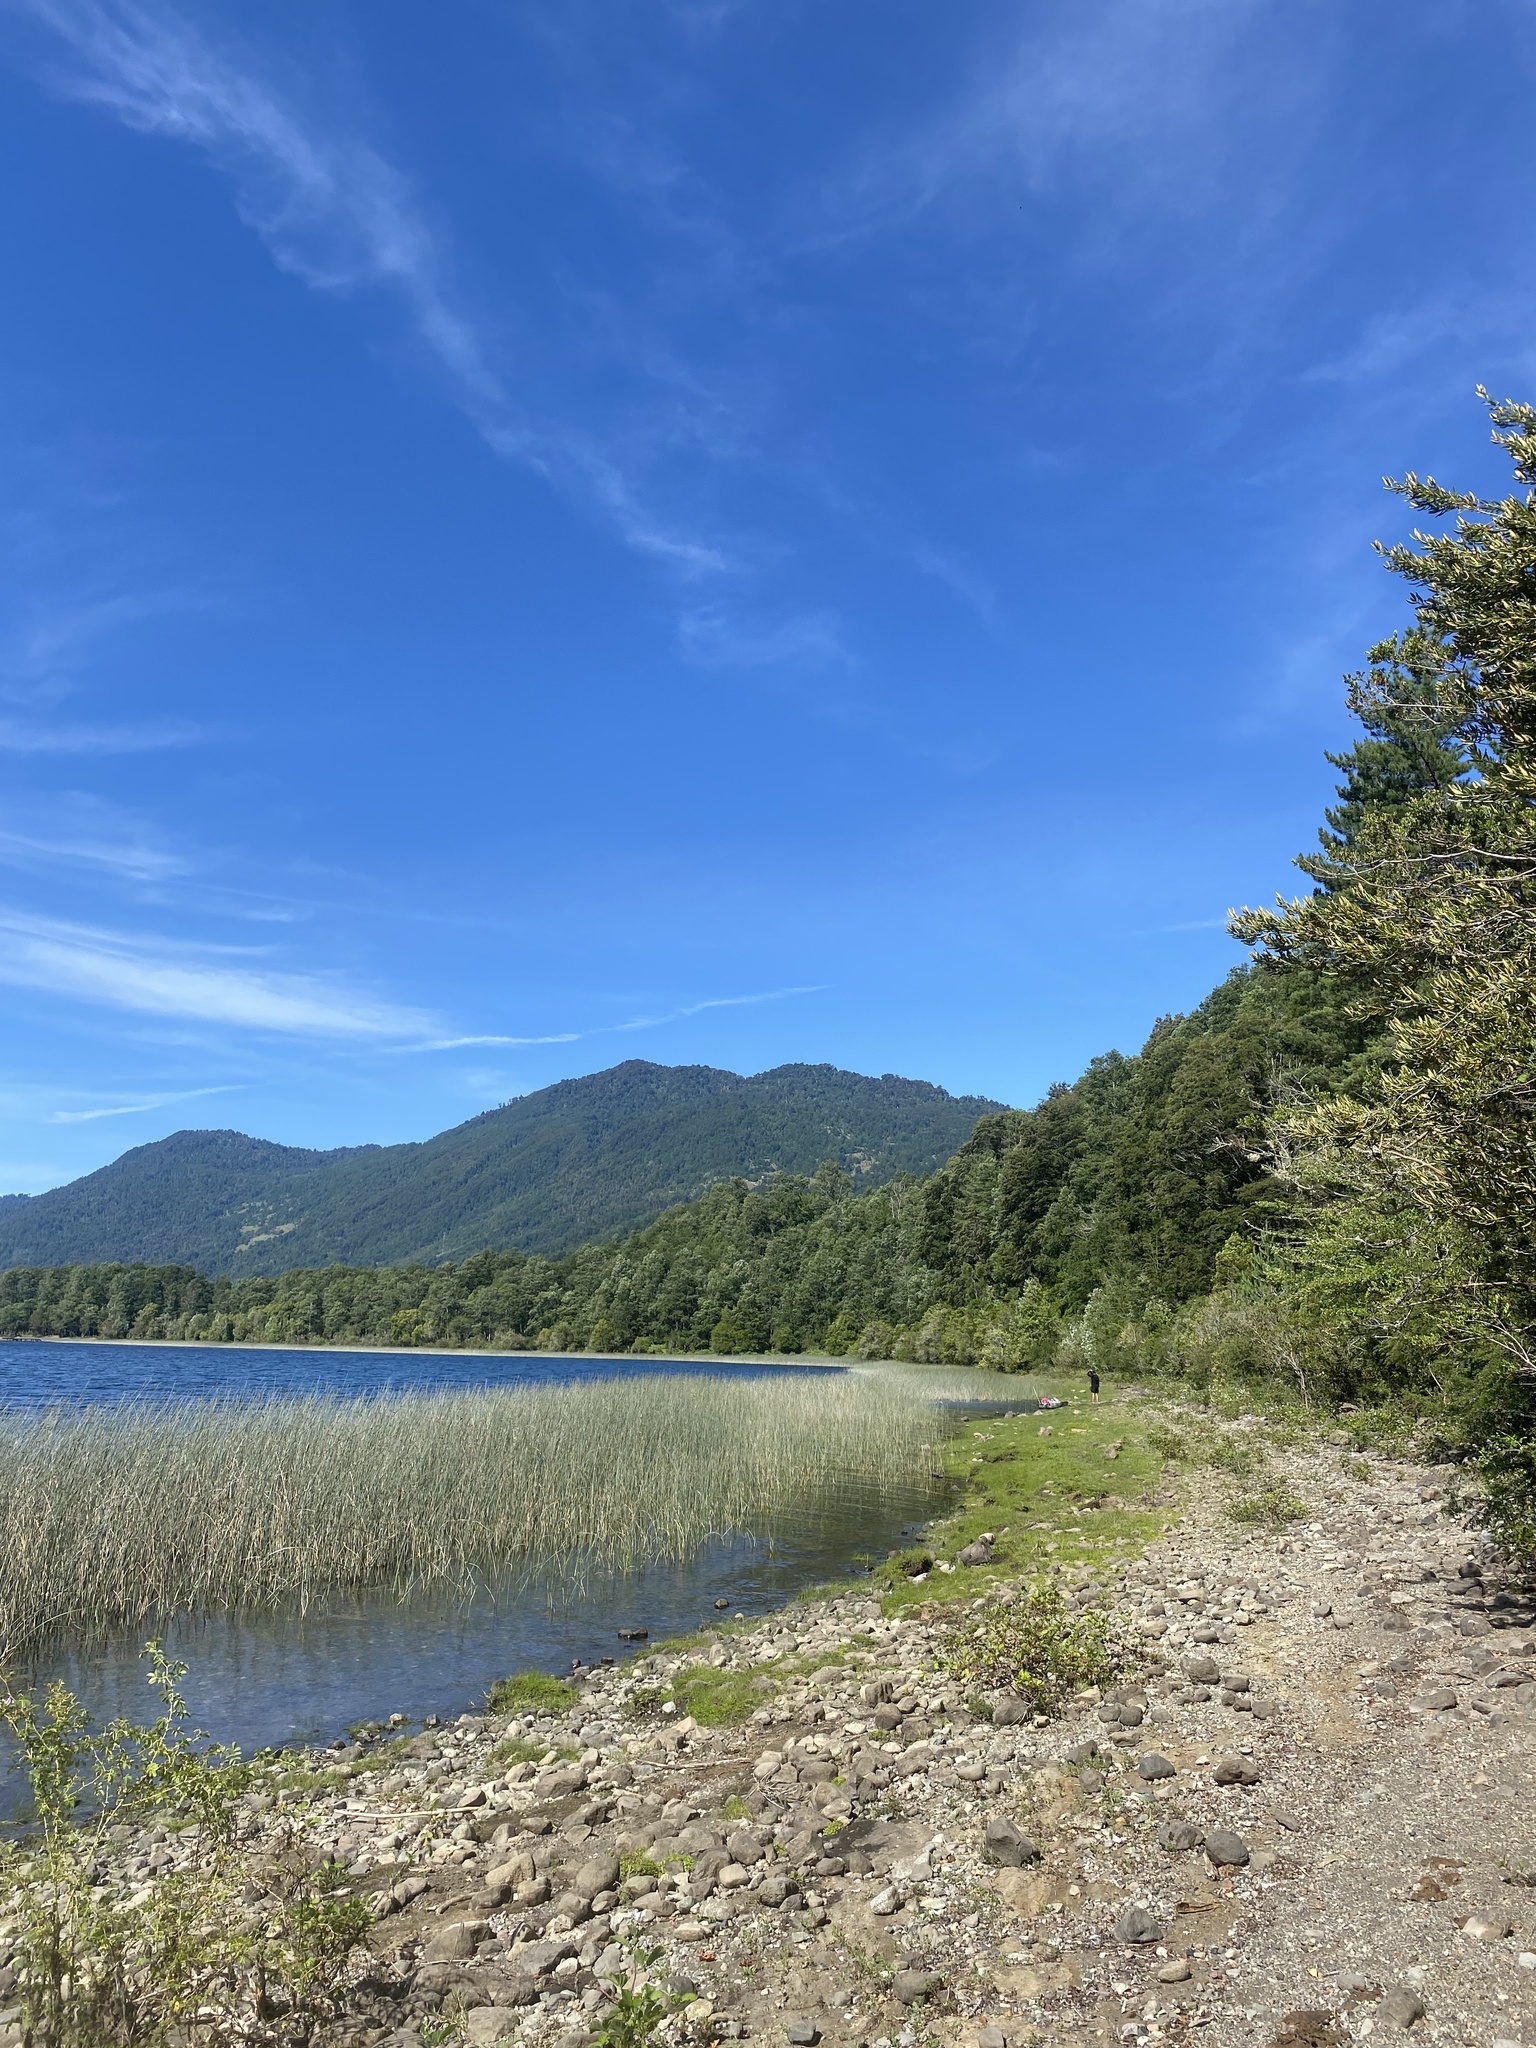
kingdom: Plantae
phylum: Tracheophyta
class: Magnoliopsida
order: Gentianales
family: Rubiaceae
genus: Oldenlandia
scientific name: Oldenlandia salzmannii
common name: Salzmann's mille graines
